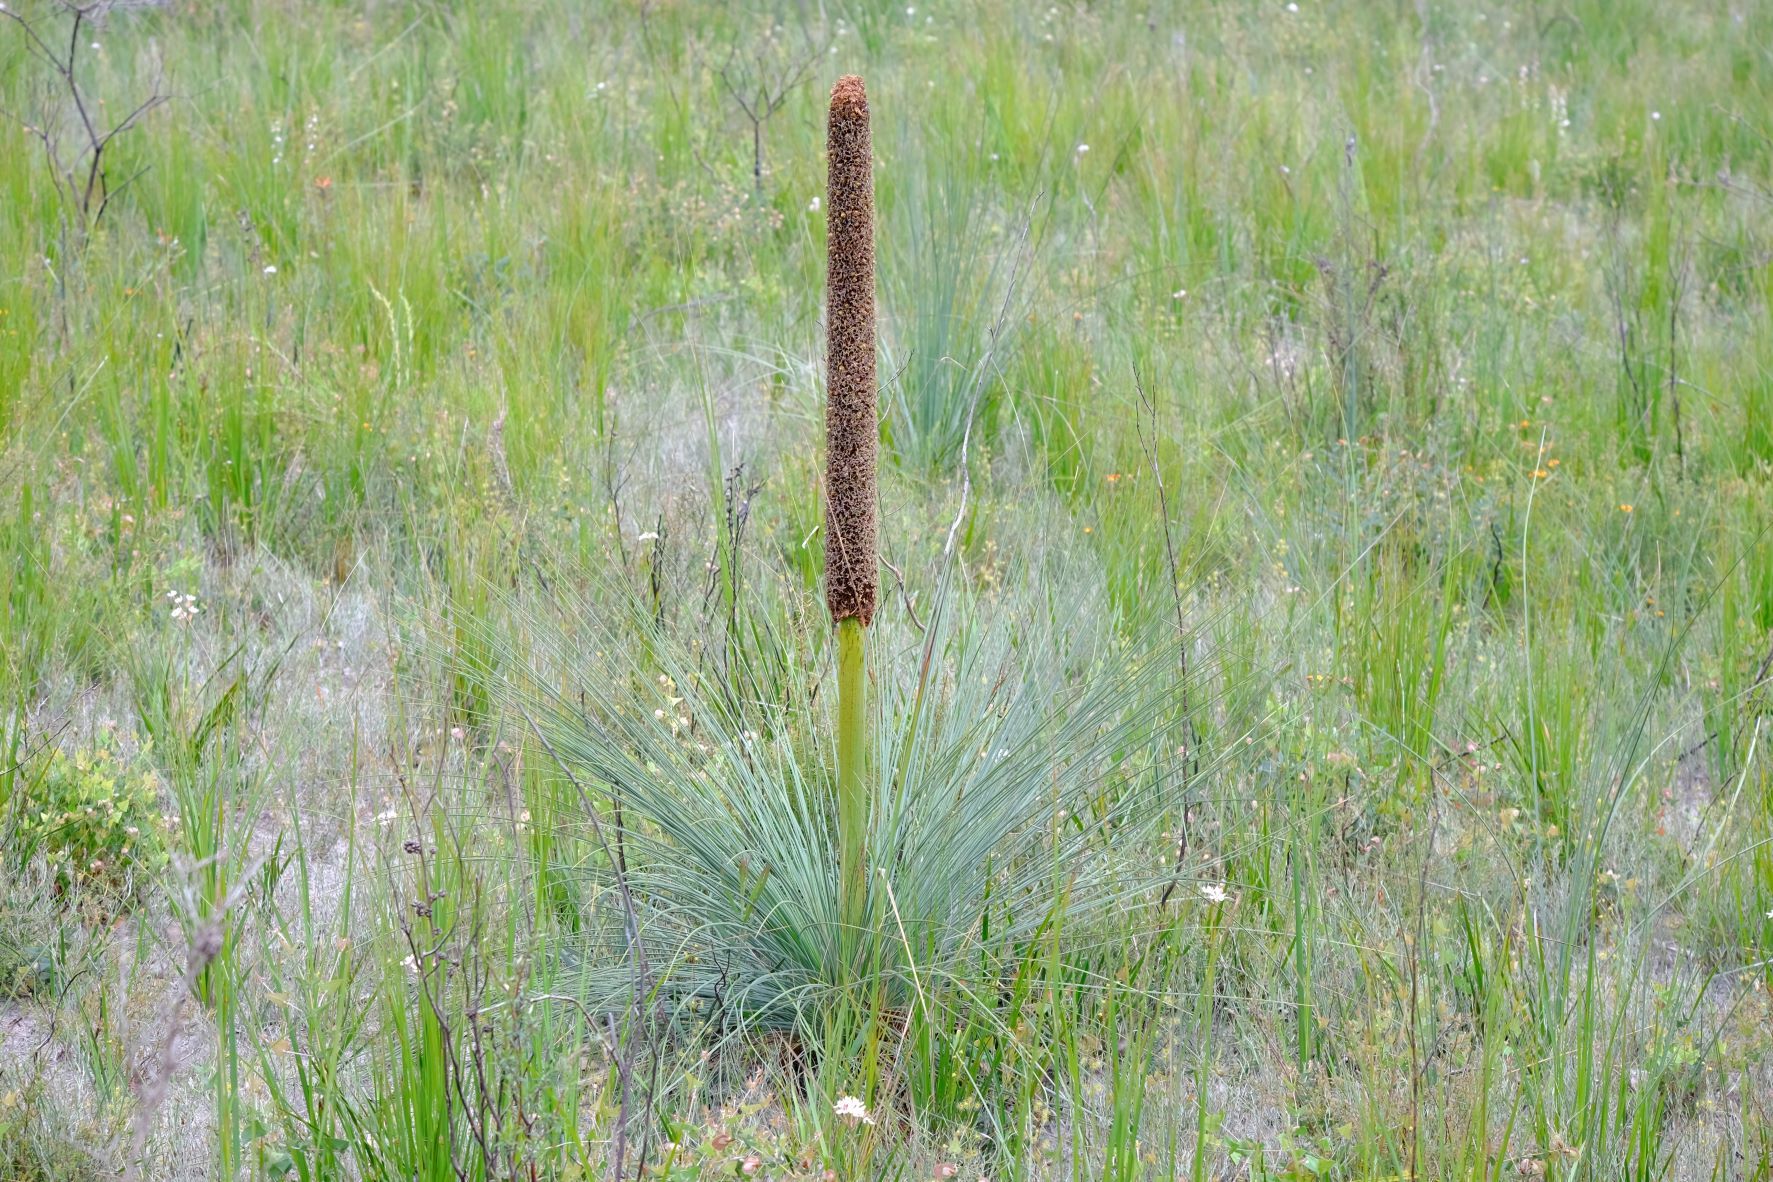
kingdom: Plantae
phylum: Tracheophyta
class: Liliopsida
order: Asparagales
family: Asphodelaceae
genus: Xanthorrhoea
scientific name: Xanthorrhoea australis
